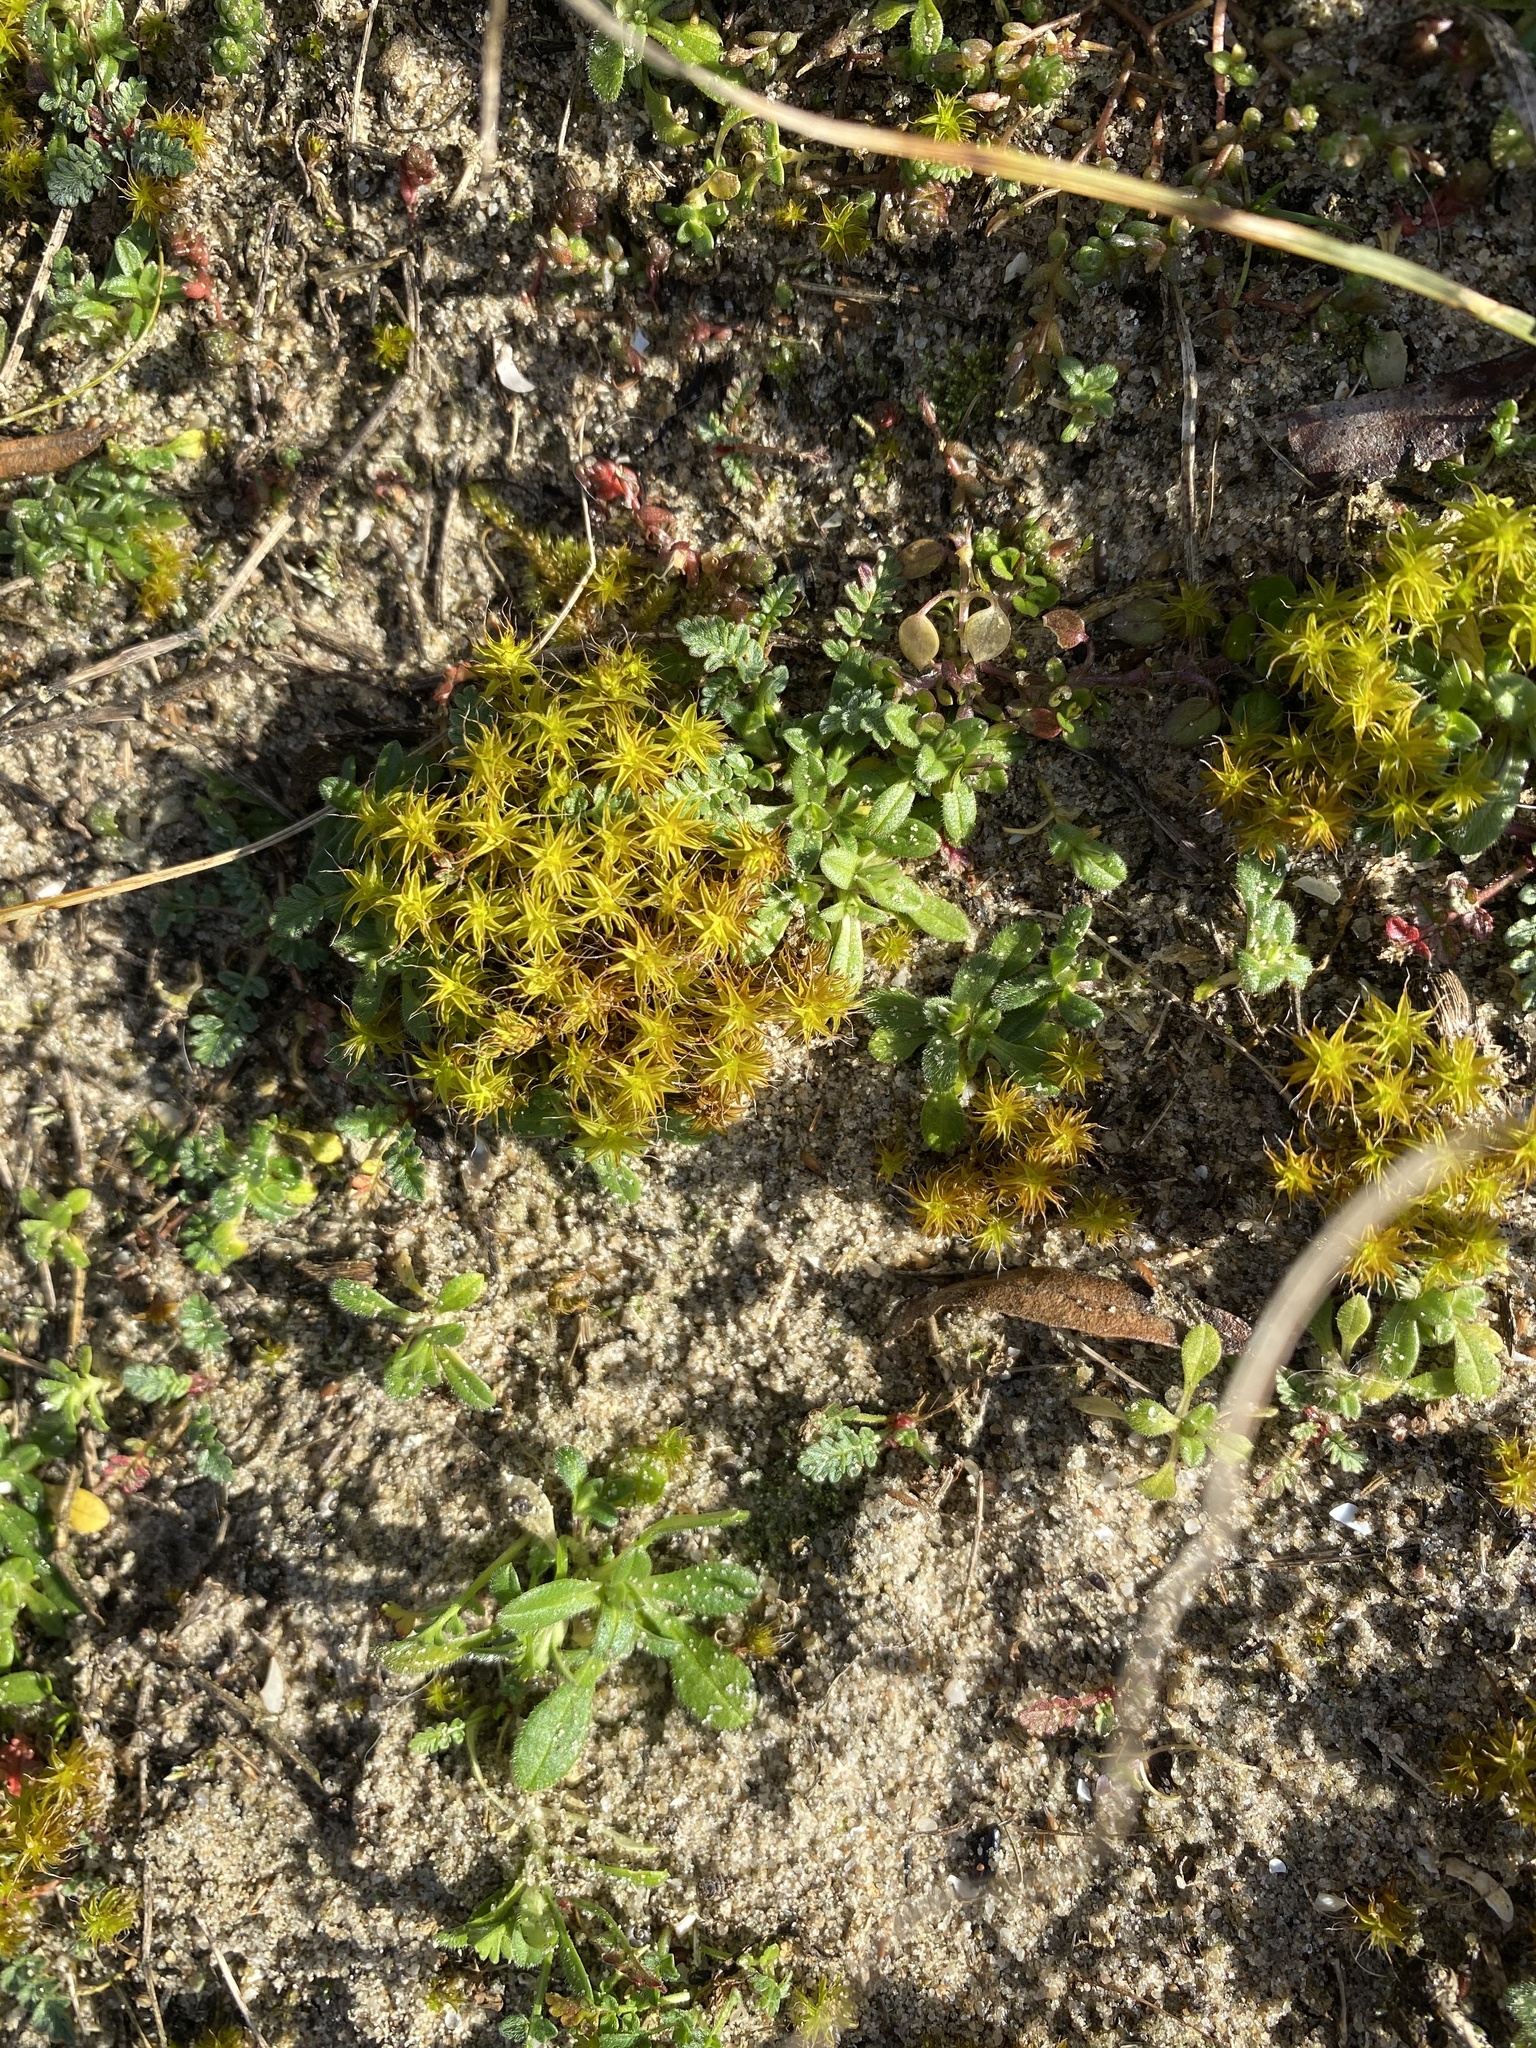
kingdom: Plantae
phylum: Bryophyta
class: Bryopsida
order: Pottiales
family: Pottiaceae
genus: Syntrichia
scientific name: Syntrichia ruralis
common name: Sidewalk screw moss
